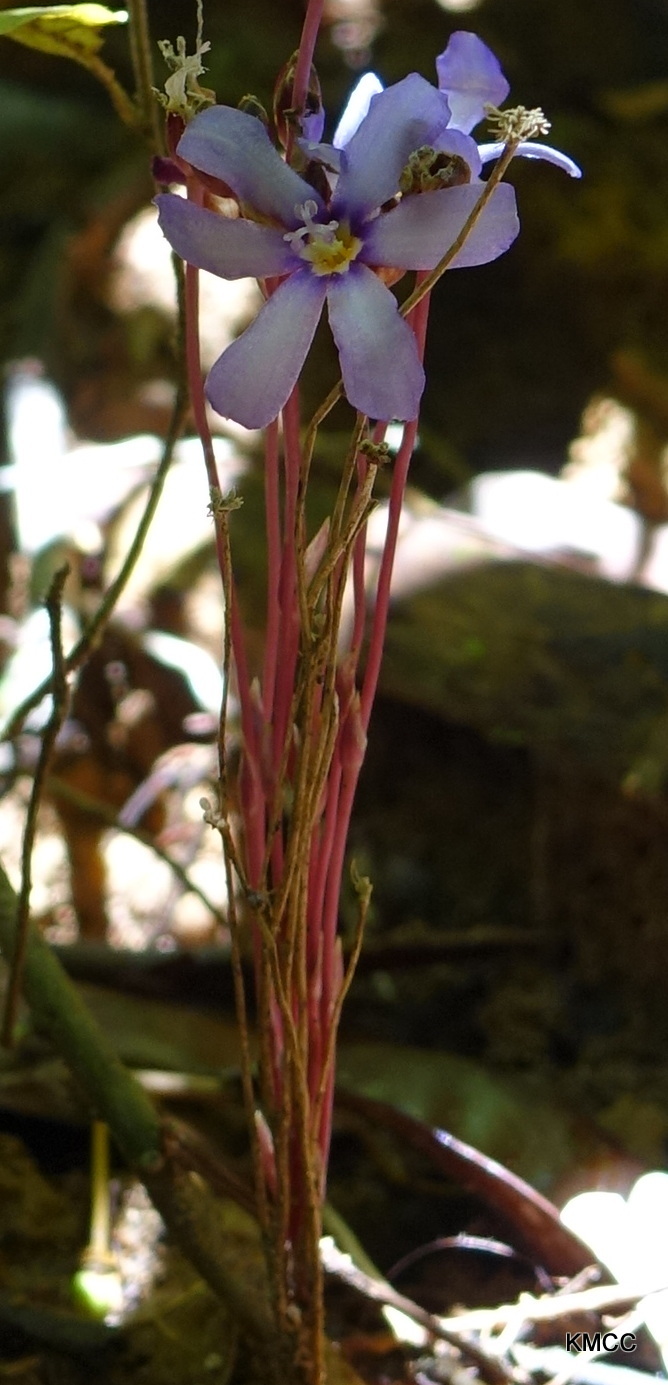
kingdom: Plantae
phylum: Tracheophyta
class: Liliopsida
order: Asparagales
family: Iridaceae
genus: Geosiris
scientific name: Geosiris aphylla
